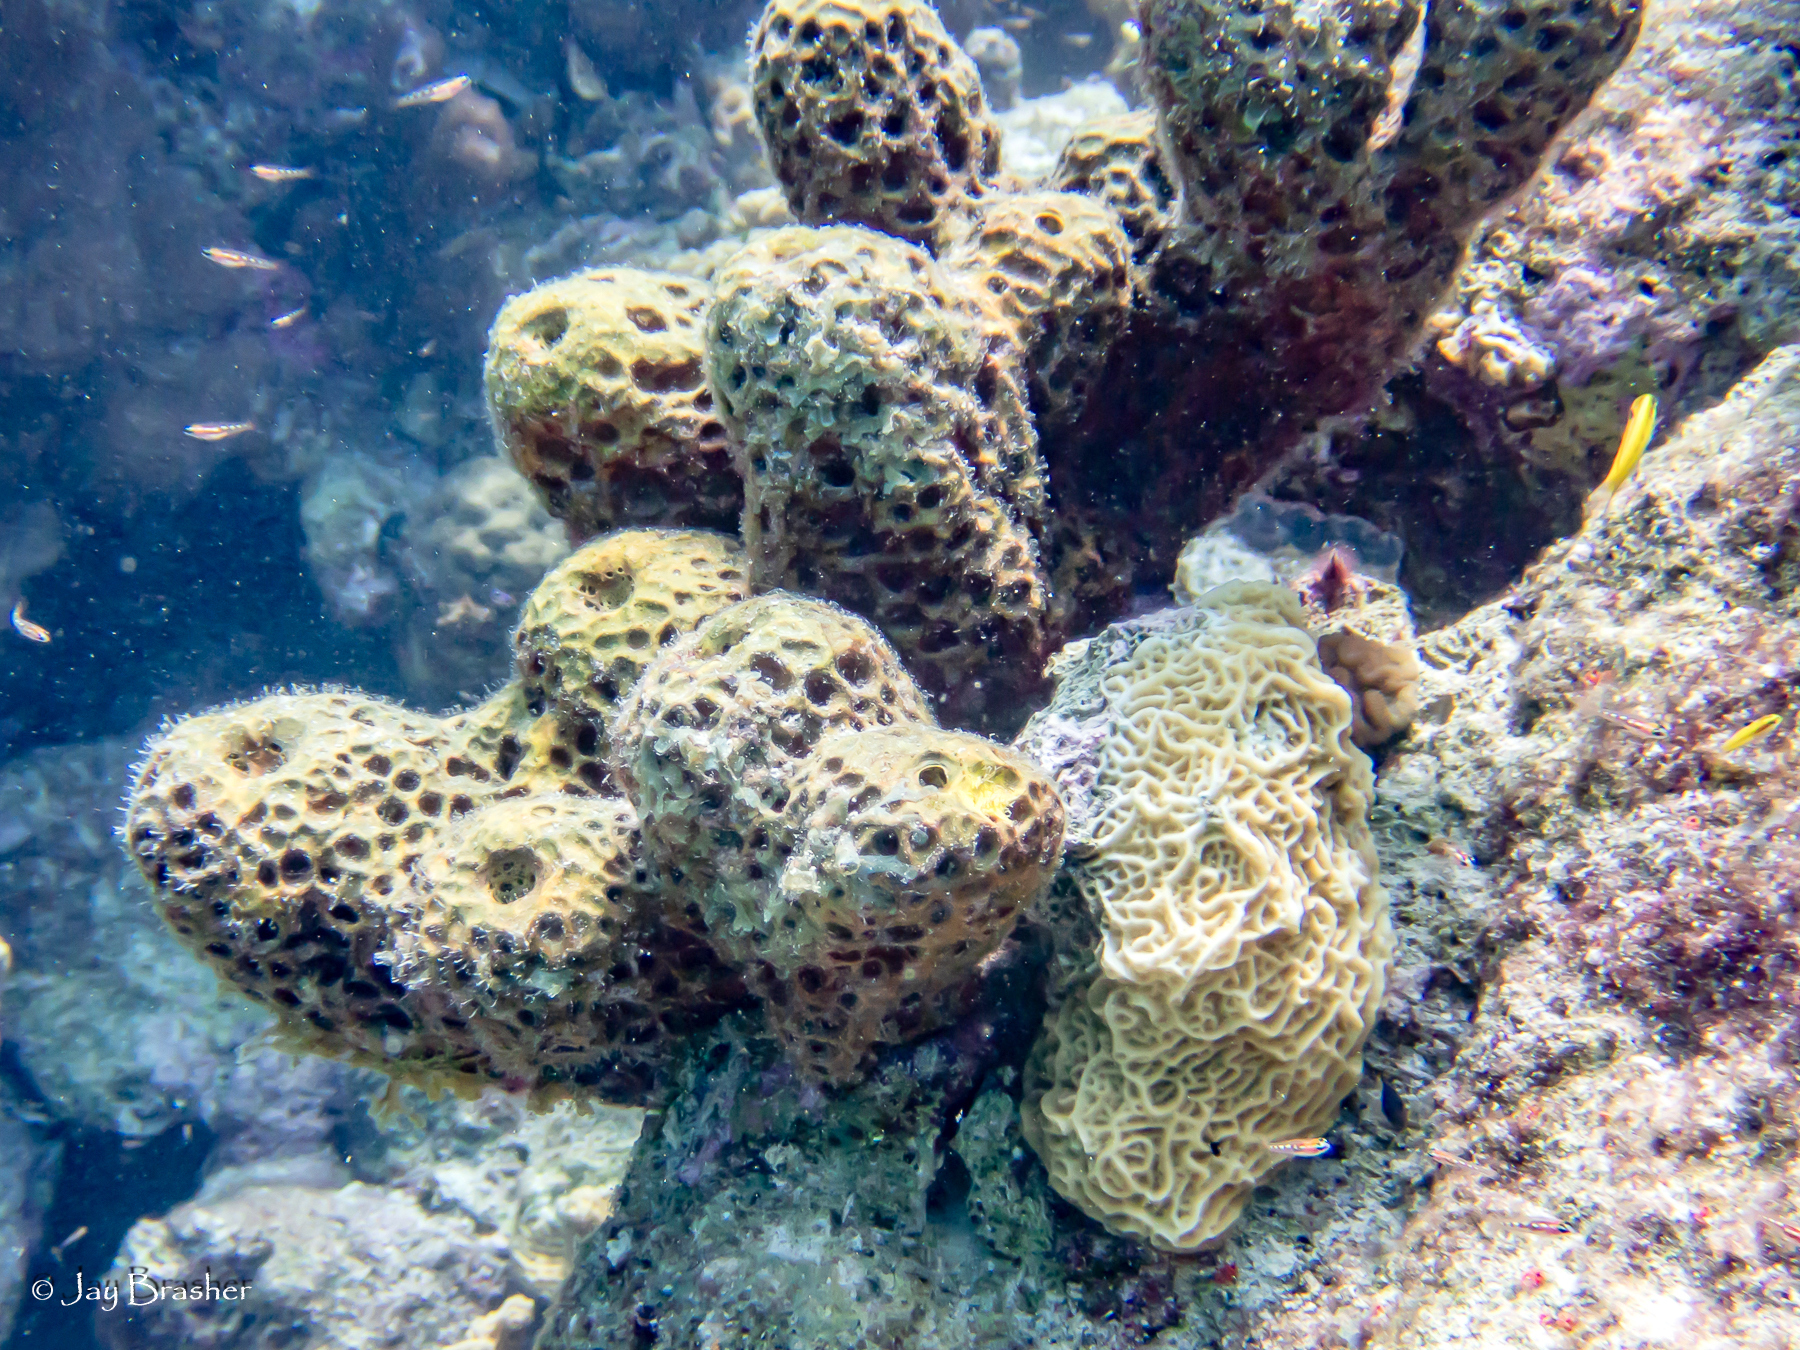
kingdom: Animalia
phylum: Cnidaria
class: Anthozoa
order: Scleractinia
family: Agariciidae
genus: Agaricia
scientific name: Agaricia humilis
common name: Lowrelief lettuce coral
